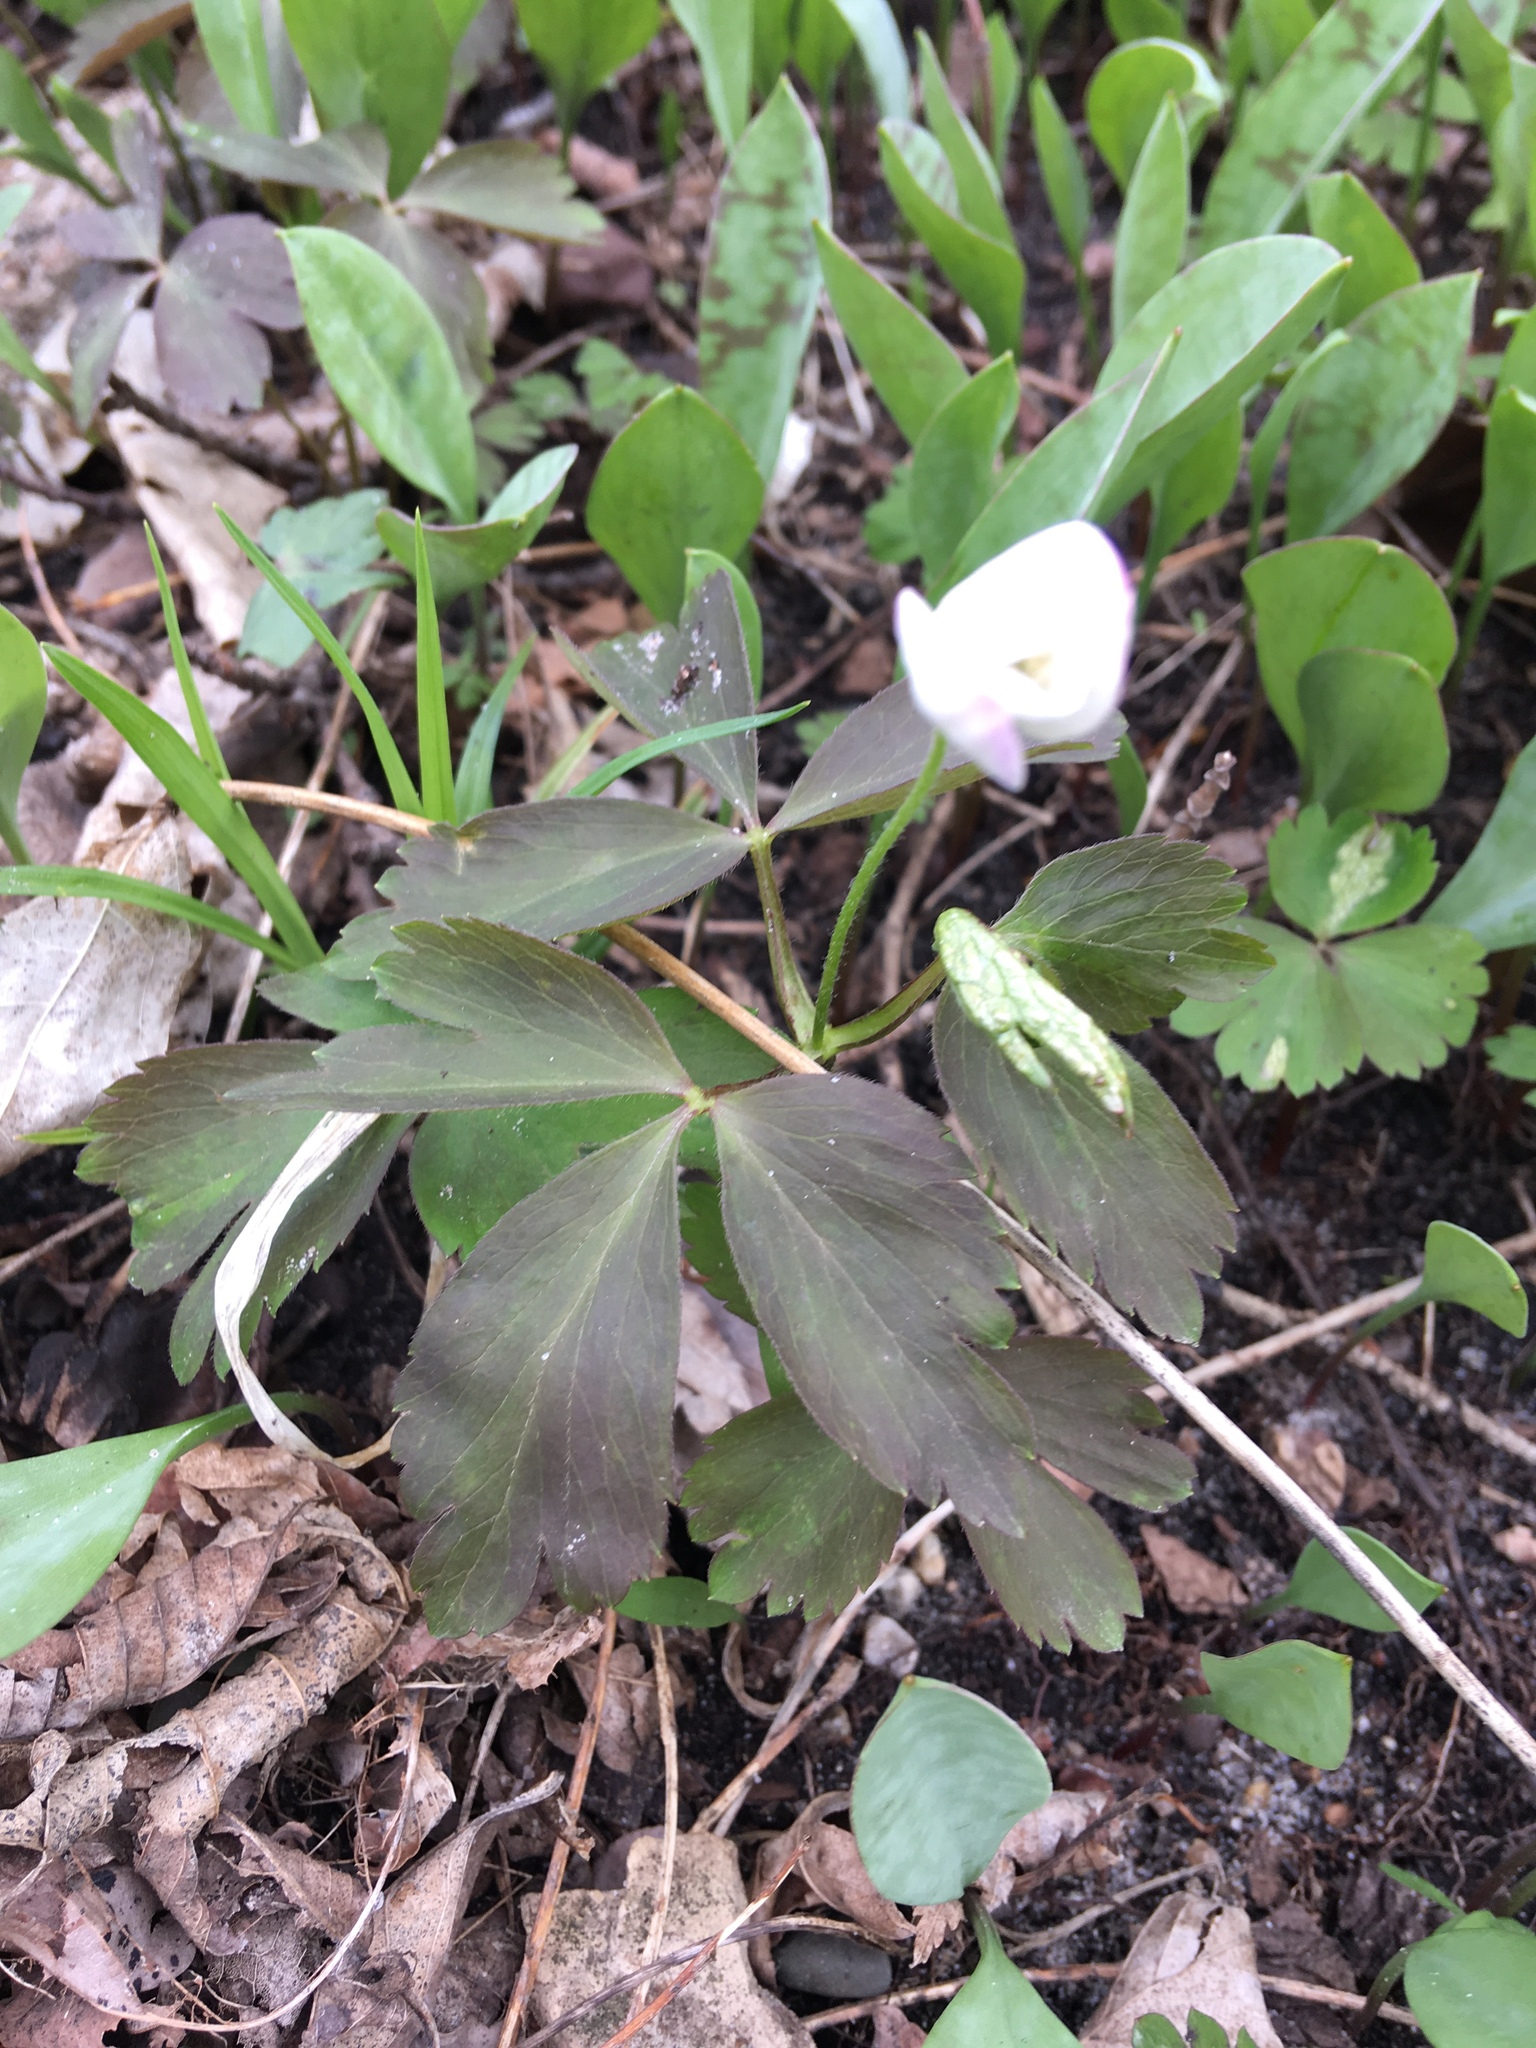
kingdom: Plantae
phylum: Tracheophyta
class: Magnoliopsida
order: Ranunculales
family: Ranunculaceae
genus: Anemone
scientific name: Anemone quinquefolia
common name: Wood anemone
